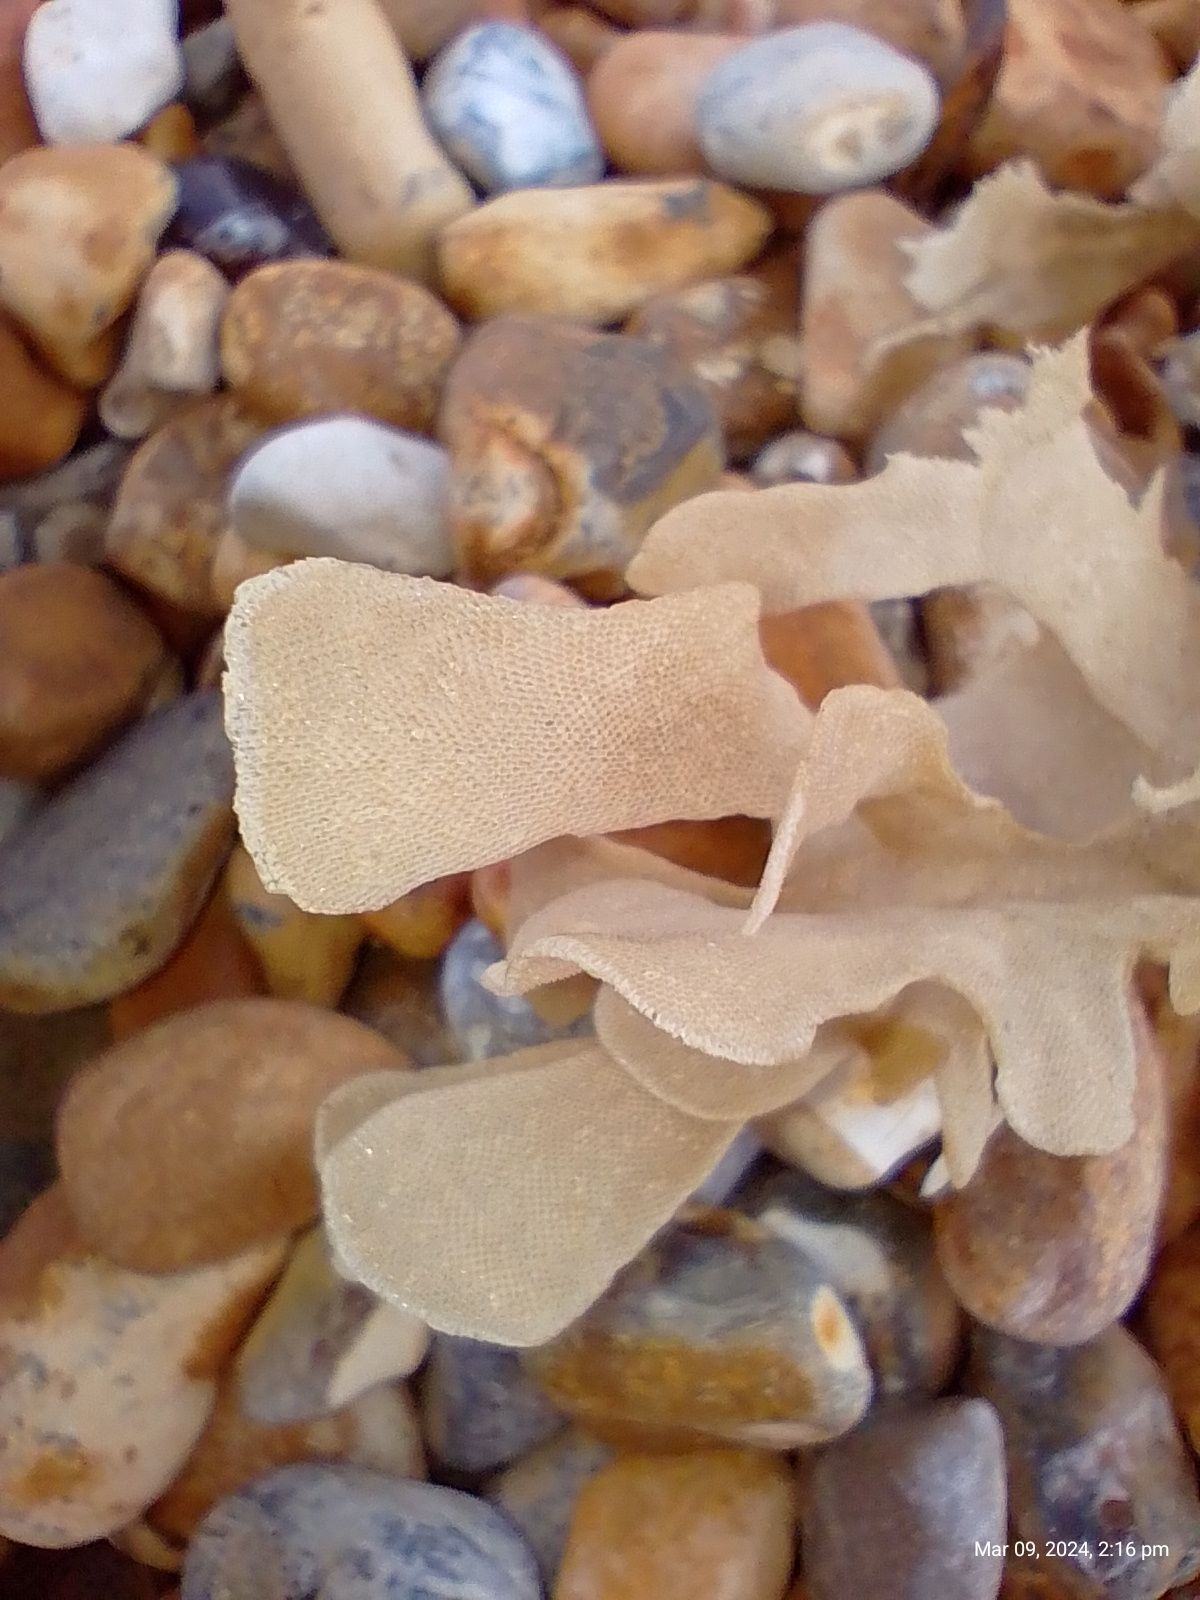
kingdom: Animalia
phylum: Bryozoa
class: Gymnolaemata
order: Cheilostomatida
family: Flustridae
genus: Flustra
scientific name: Flustra foliacea
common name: Hornwrack
